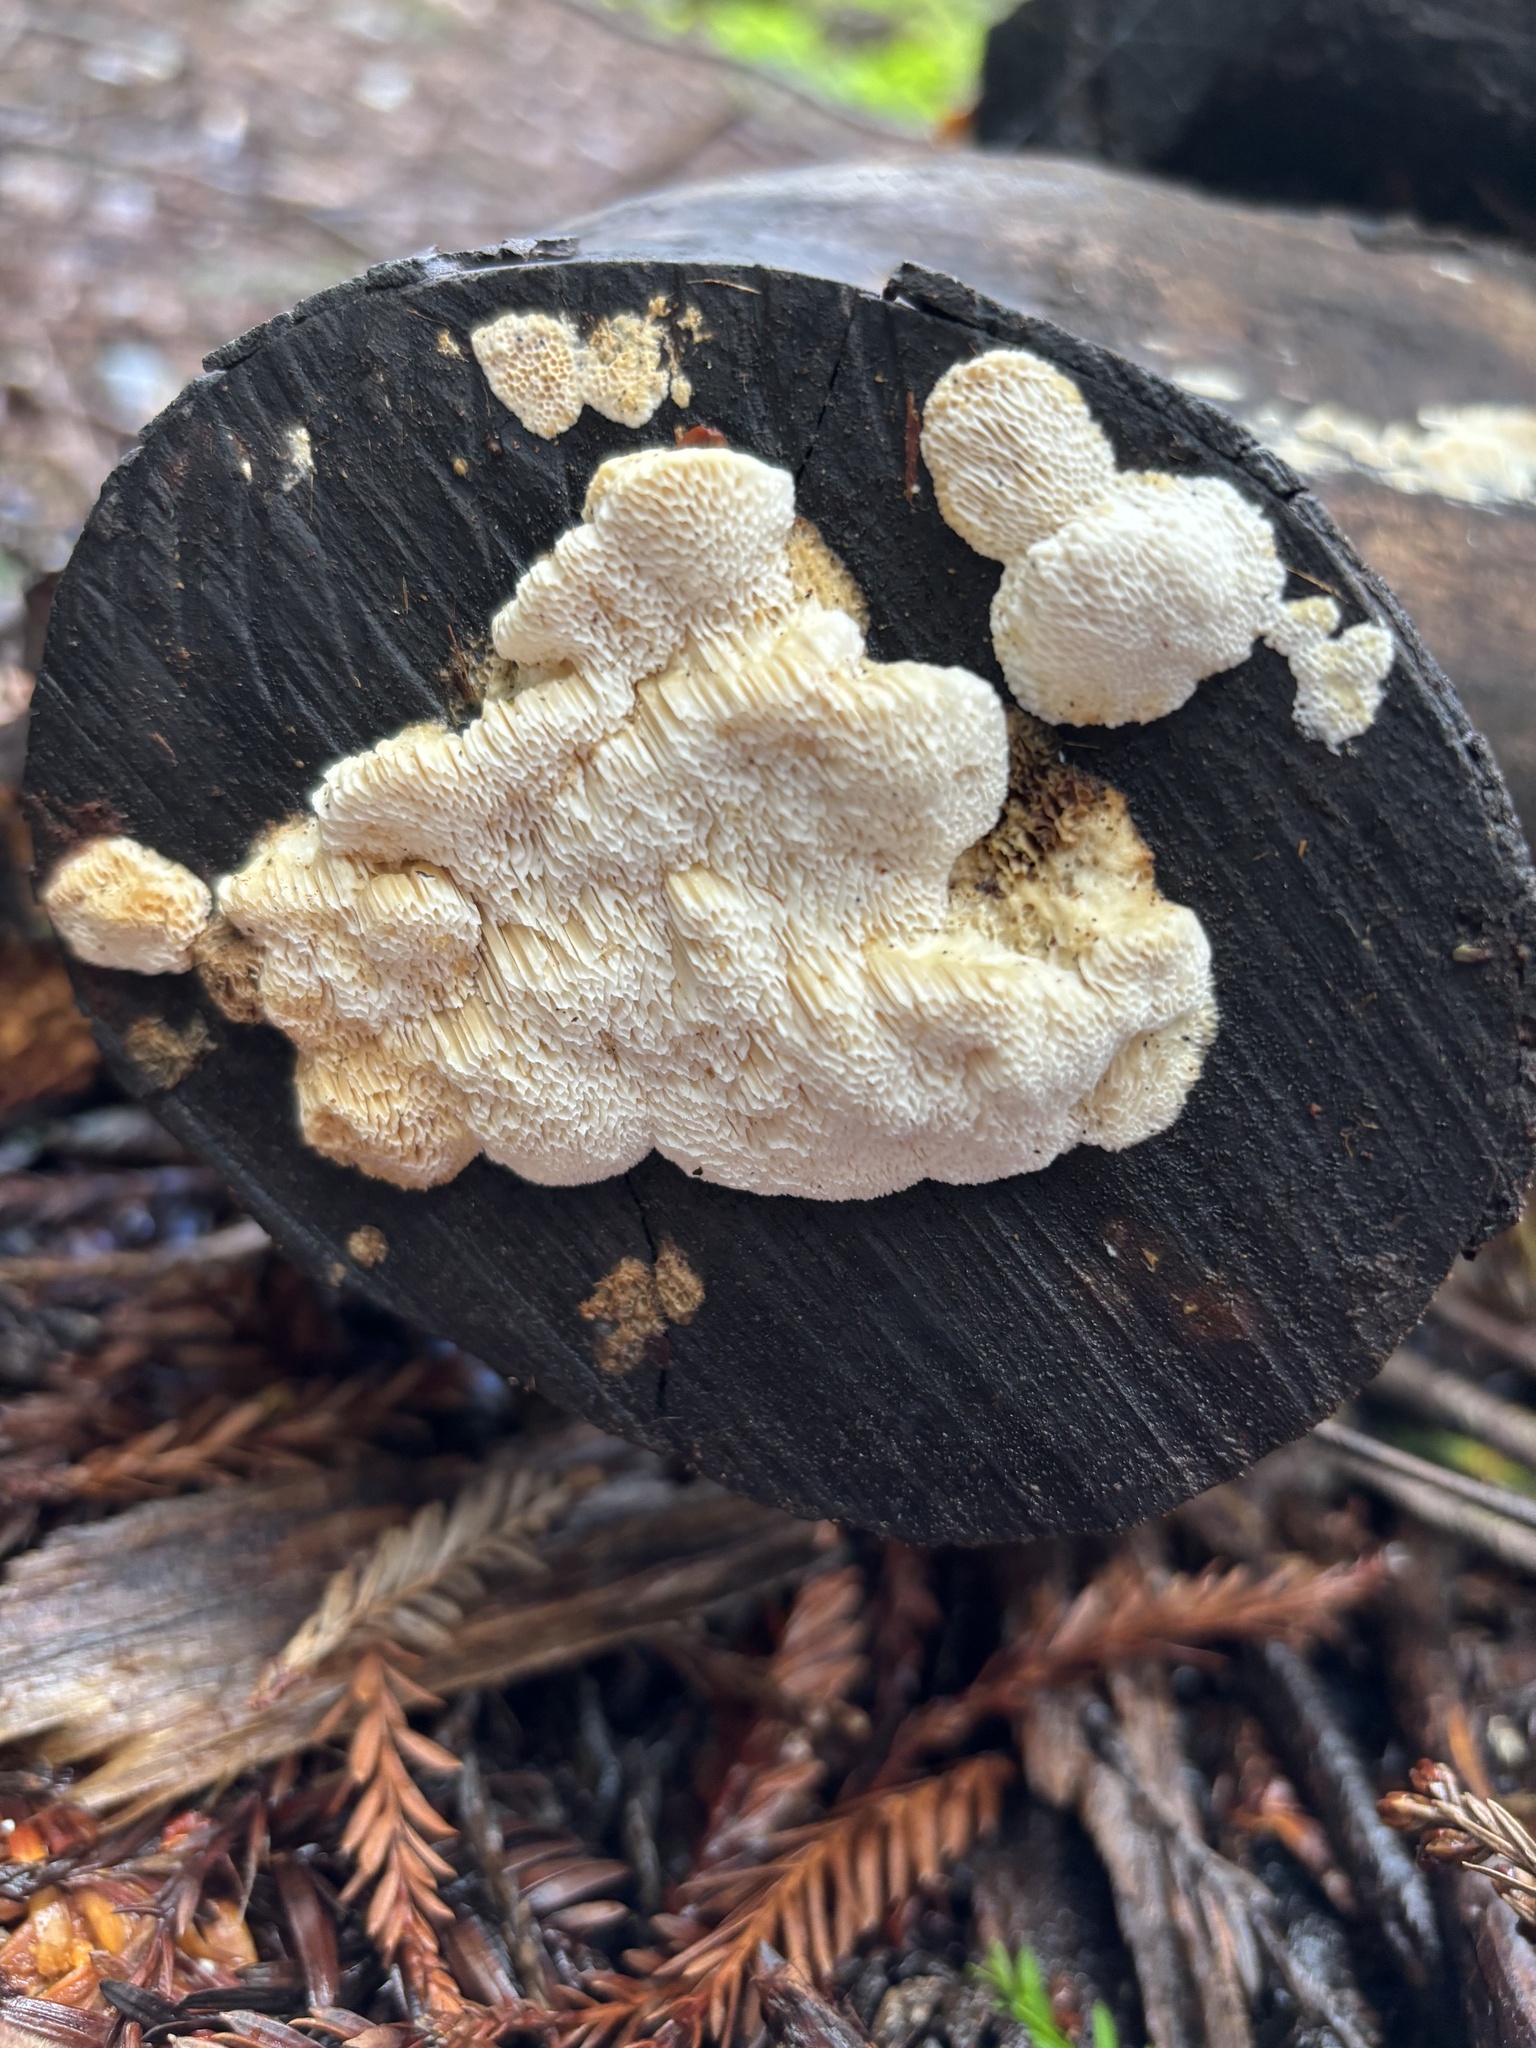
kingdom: Fungi
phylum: Basidiomycota
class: Agaricomycetes
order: Polyporales
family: Fomitopsidaceae
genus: Fomitopsis
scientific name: Fomitopsis
